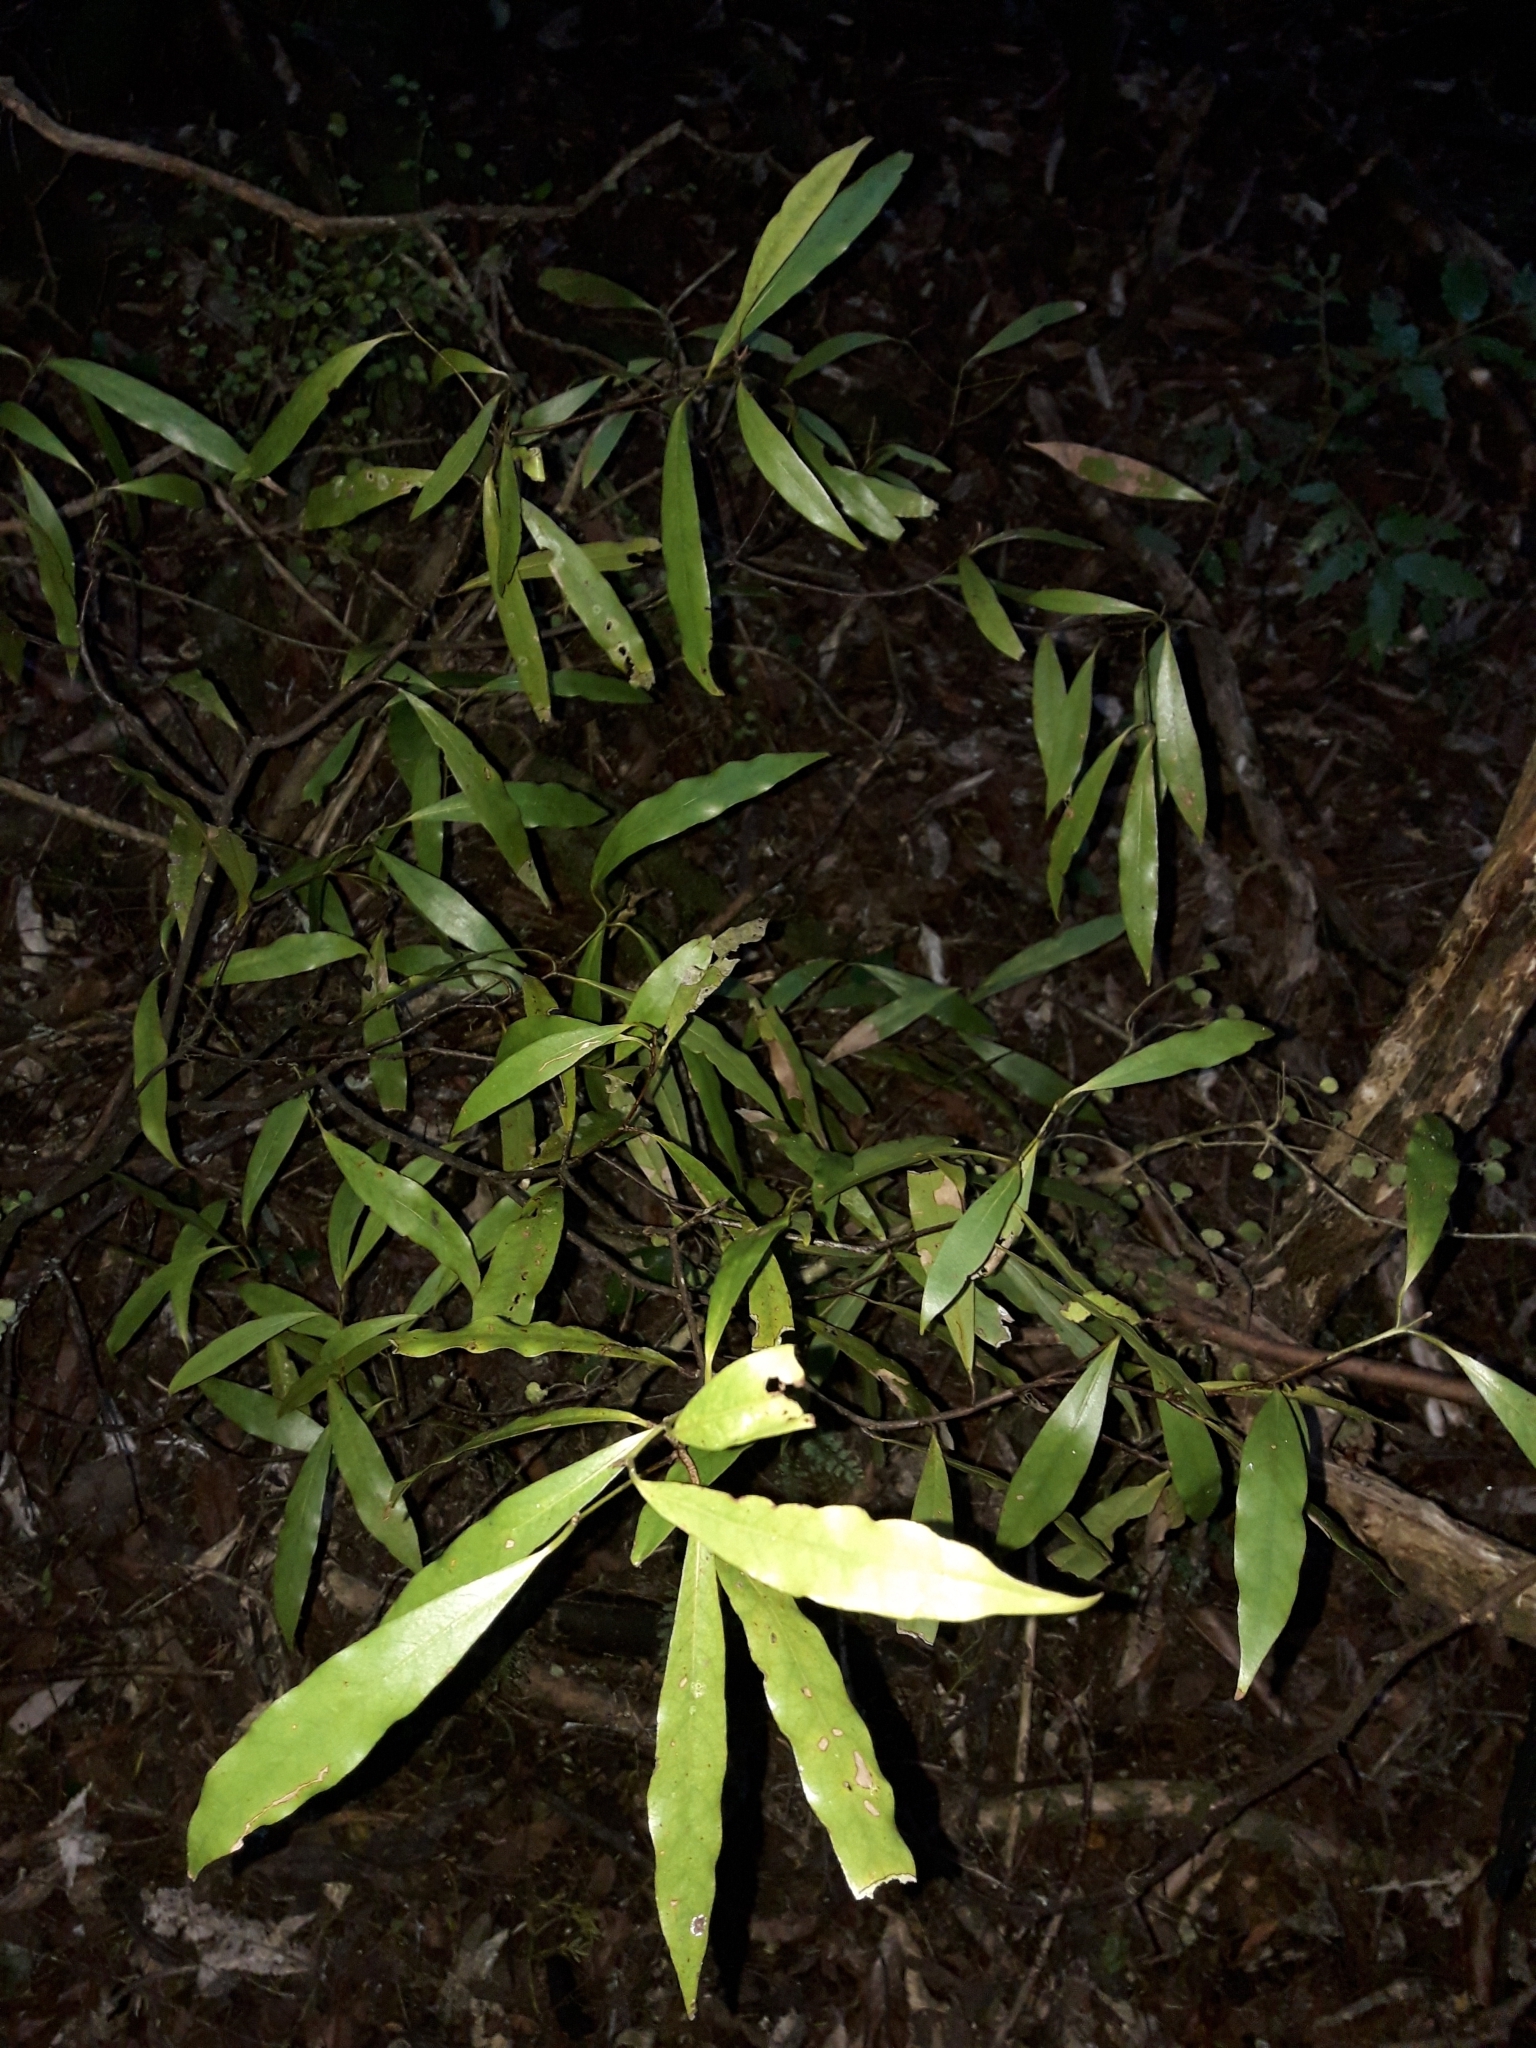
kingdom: Plantae
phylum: Tracheophyta
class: Magnoliopsida
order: Laurales
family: Lauraceae
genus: Beilschmiedia
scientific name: Beilschmiedia tawa
